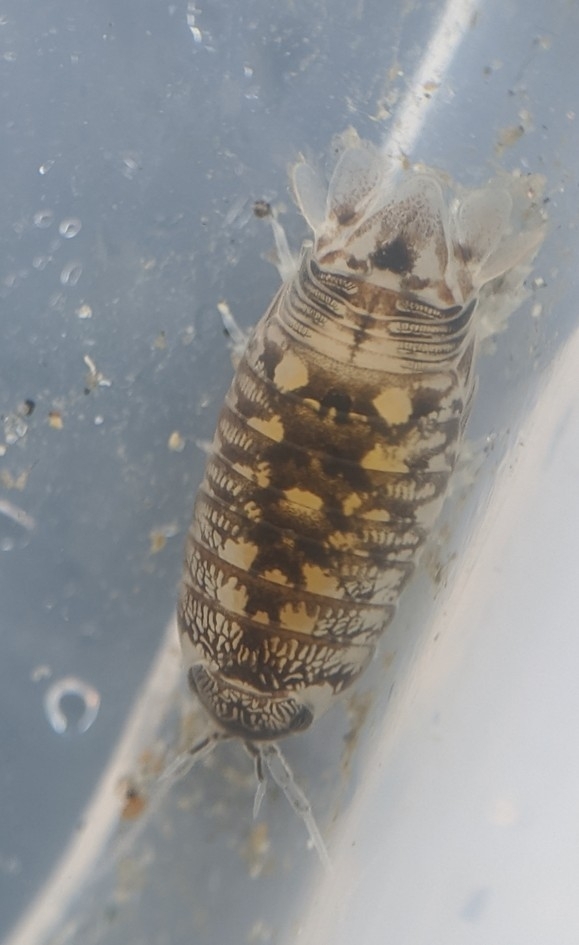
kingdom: Animalia
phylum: Arthropoda
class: Malacostraca
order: Isopoda
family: Cirolanidae
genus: Cirolana
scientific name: Cirolana harfordi
